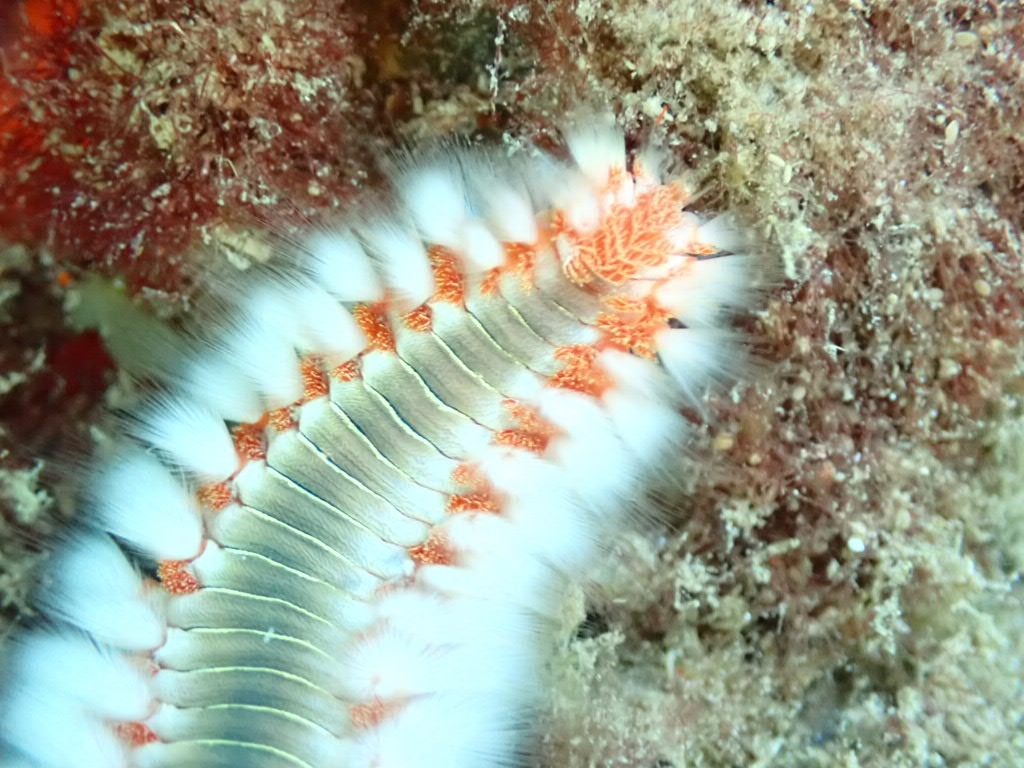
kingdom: Animalia
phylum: Annelida
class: Polychaeta
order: Amphinomida
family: Amphinomidae
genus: Hermodice
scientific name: Hermodice carunculata
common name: Bearded fireworm
